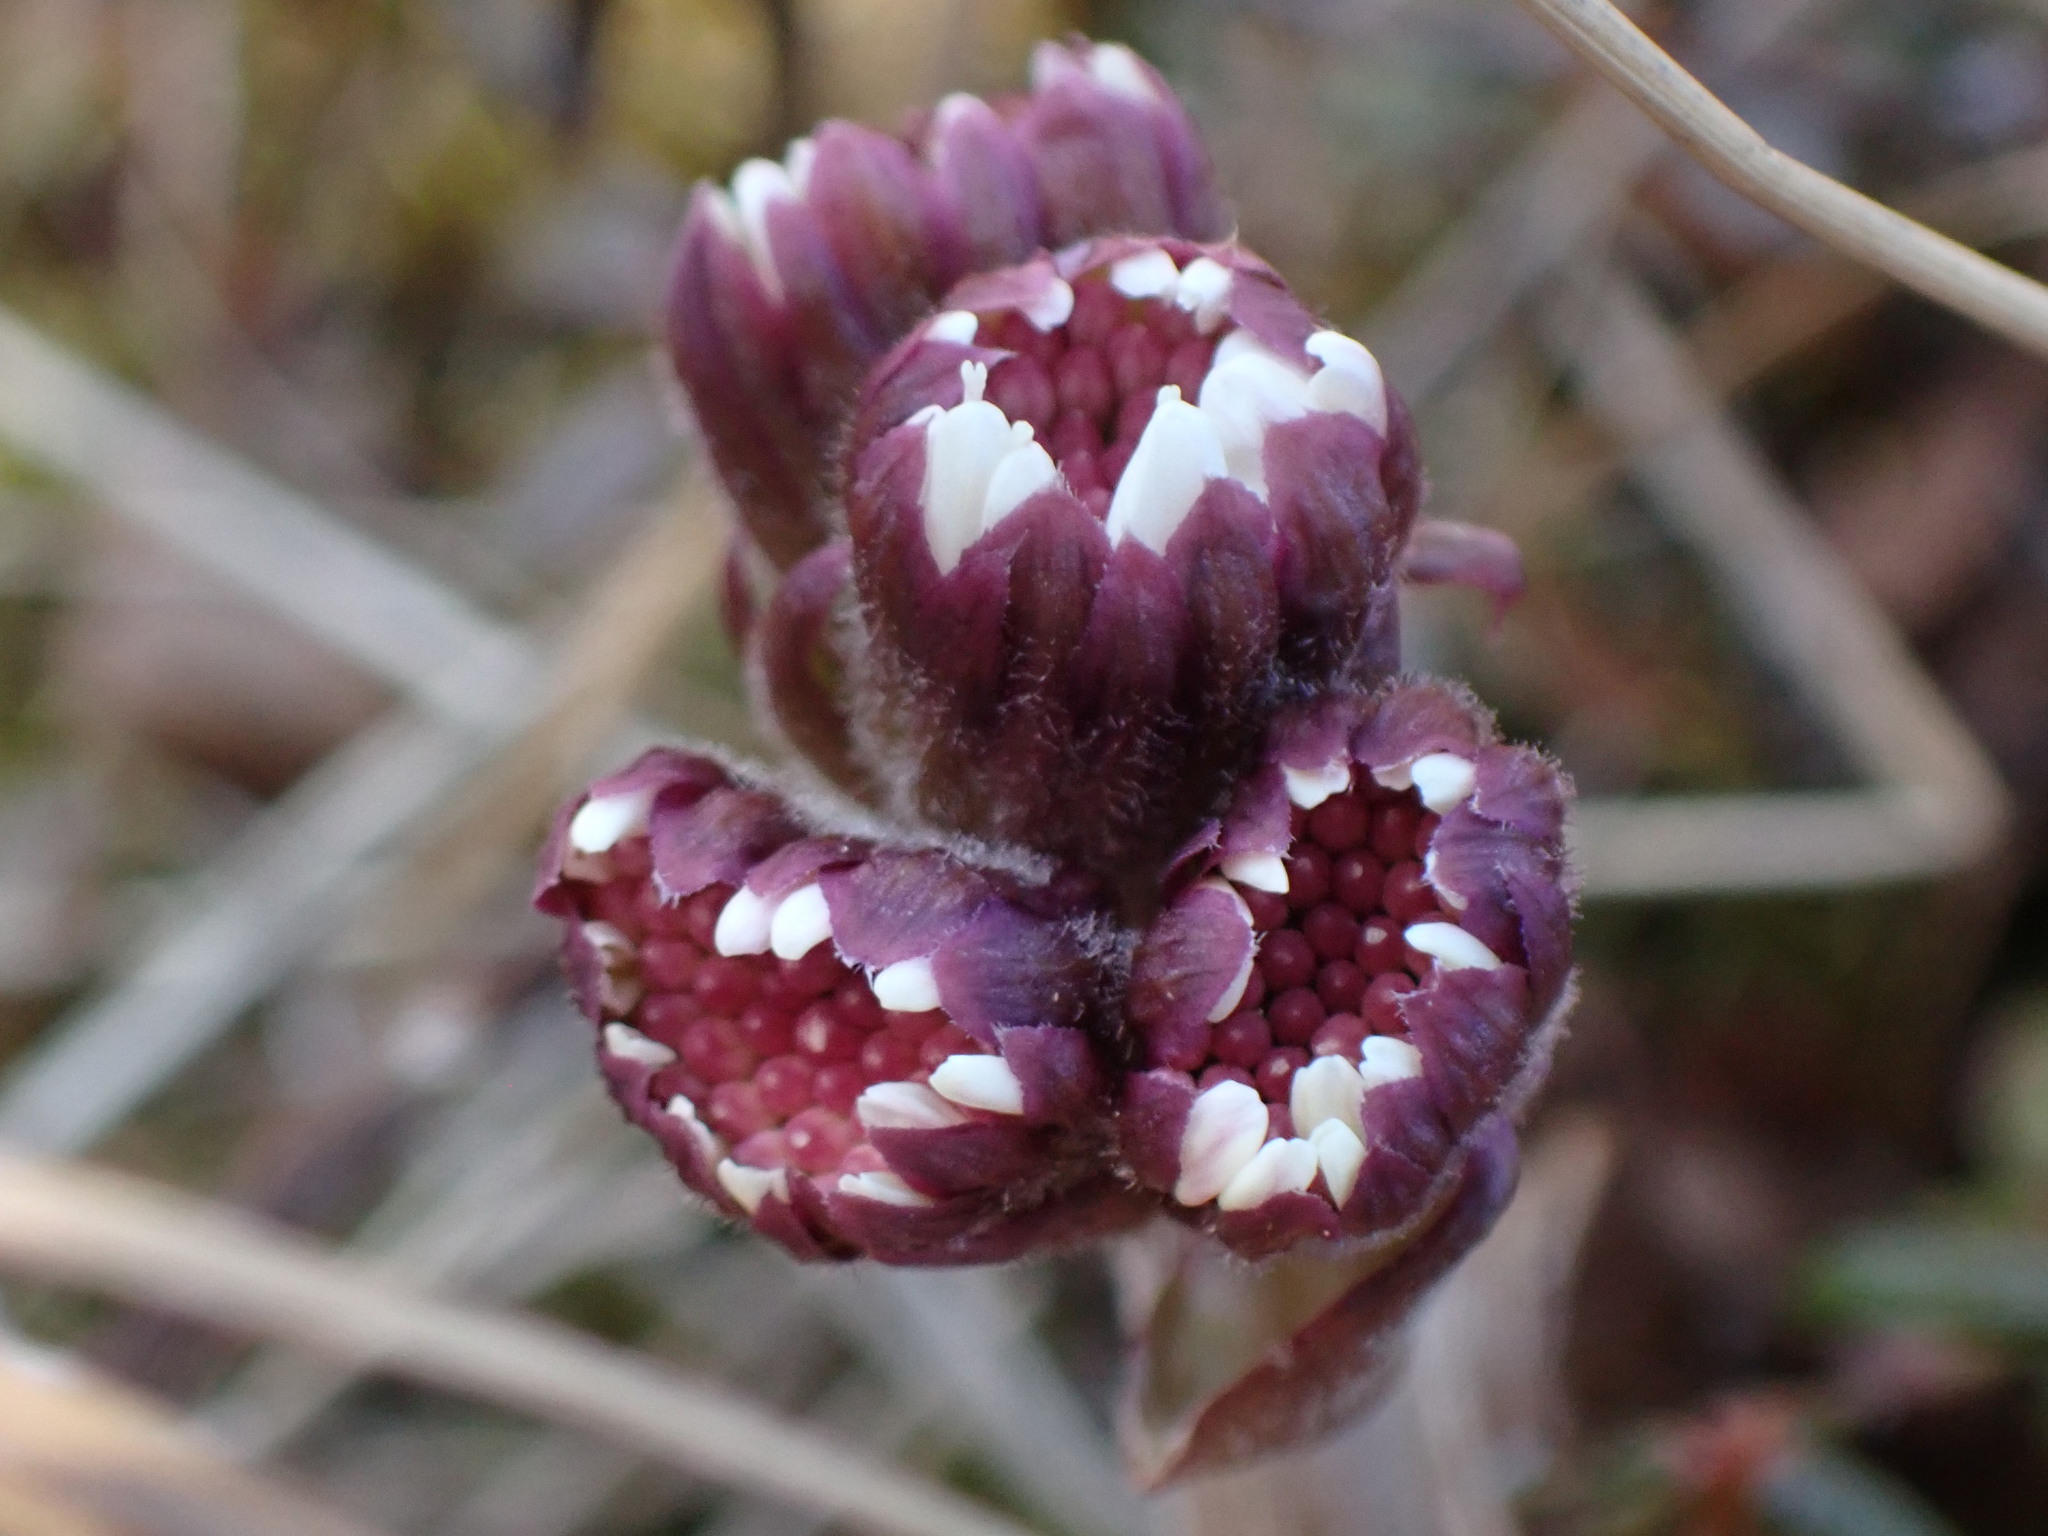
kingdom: Plantae
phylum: Tracheophyta
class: Magnoliopsida
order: Asterales
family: Asteraceae
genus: Petasites
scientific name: Petasites frigidus
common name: Arctic butterbur
